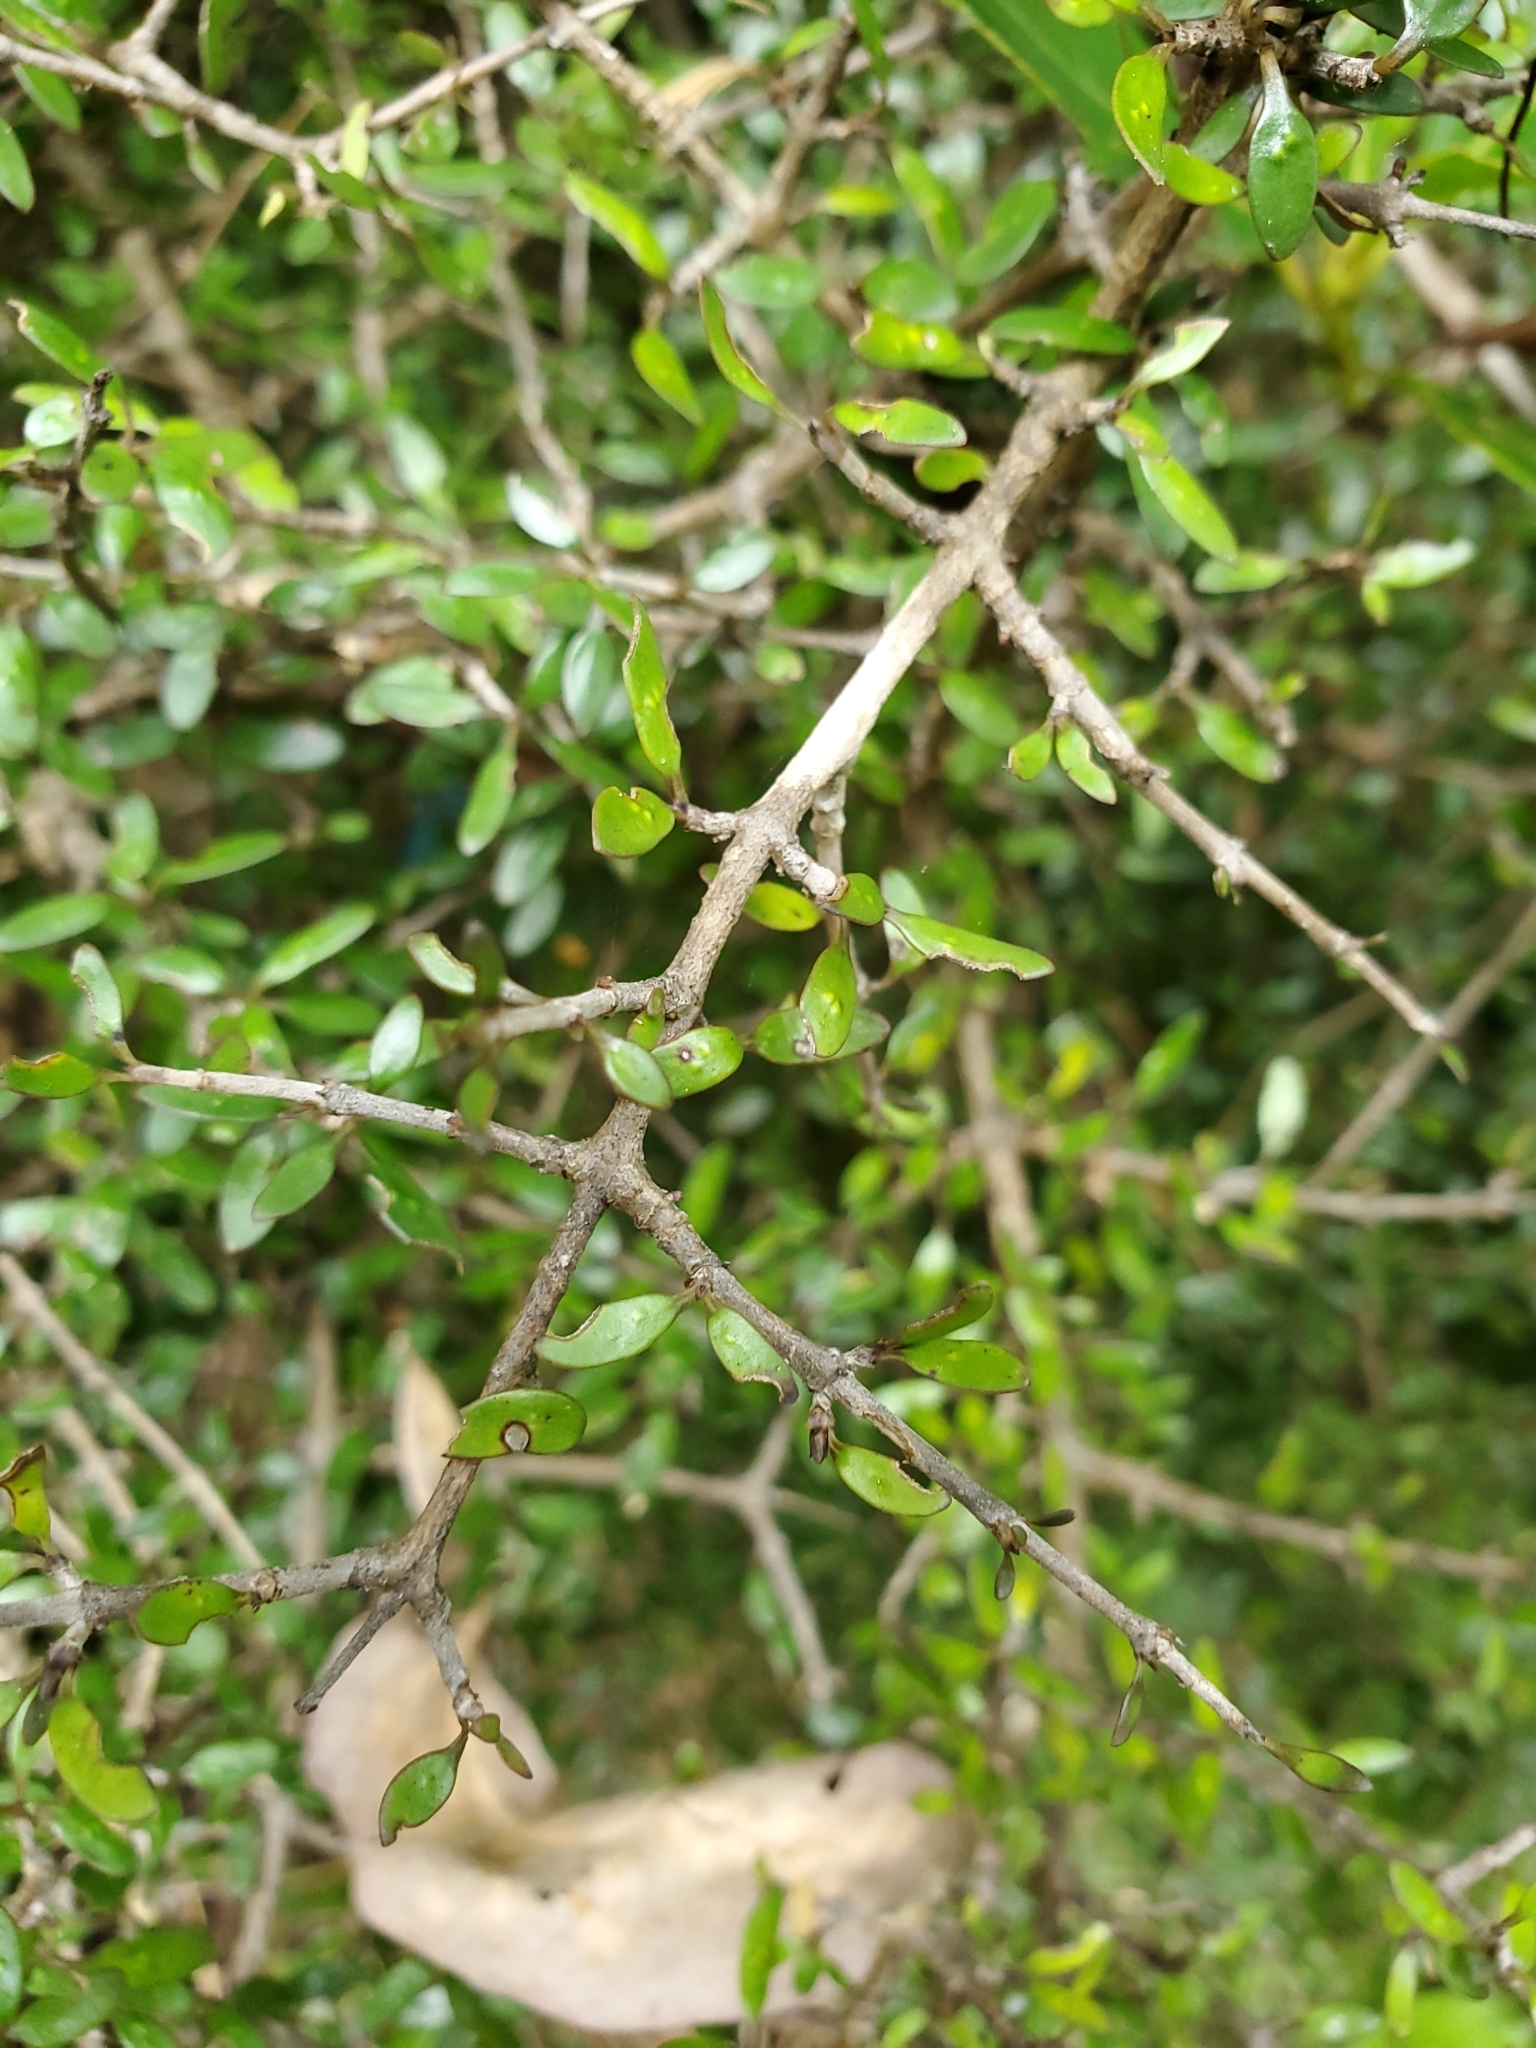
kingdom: Plantae
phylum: Tracheophyta
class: Magnoliopsida
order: Gentianales
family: Rubiaceae
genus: Coprosma
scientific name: Coprosma propinqua
